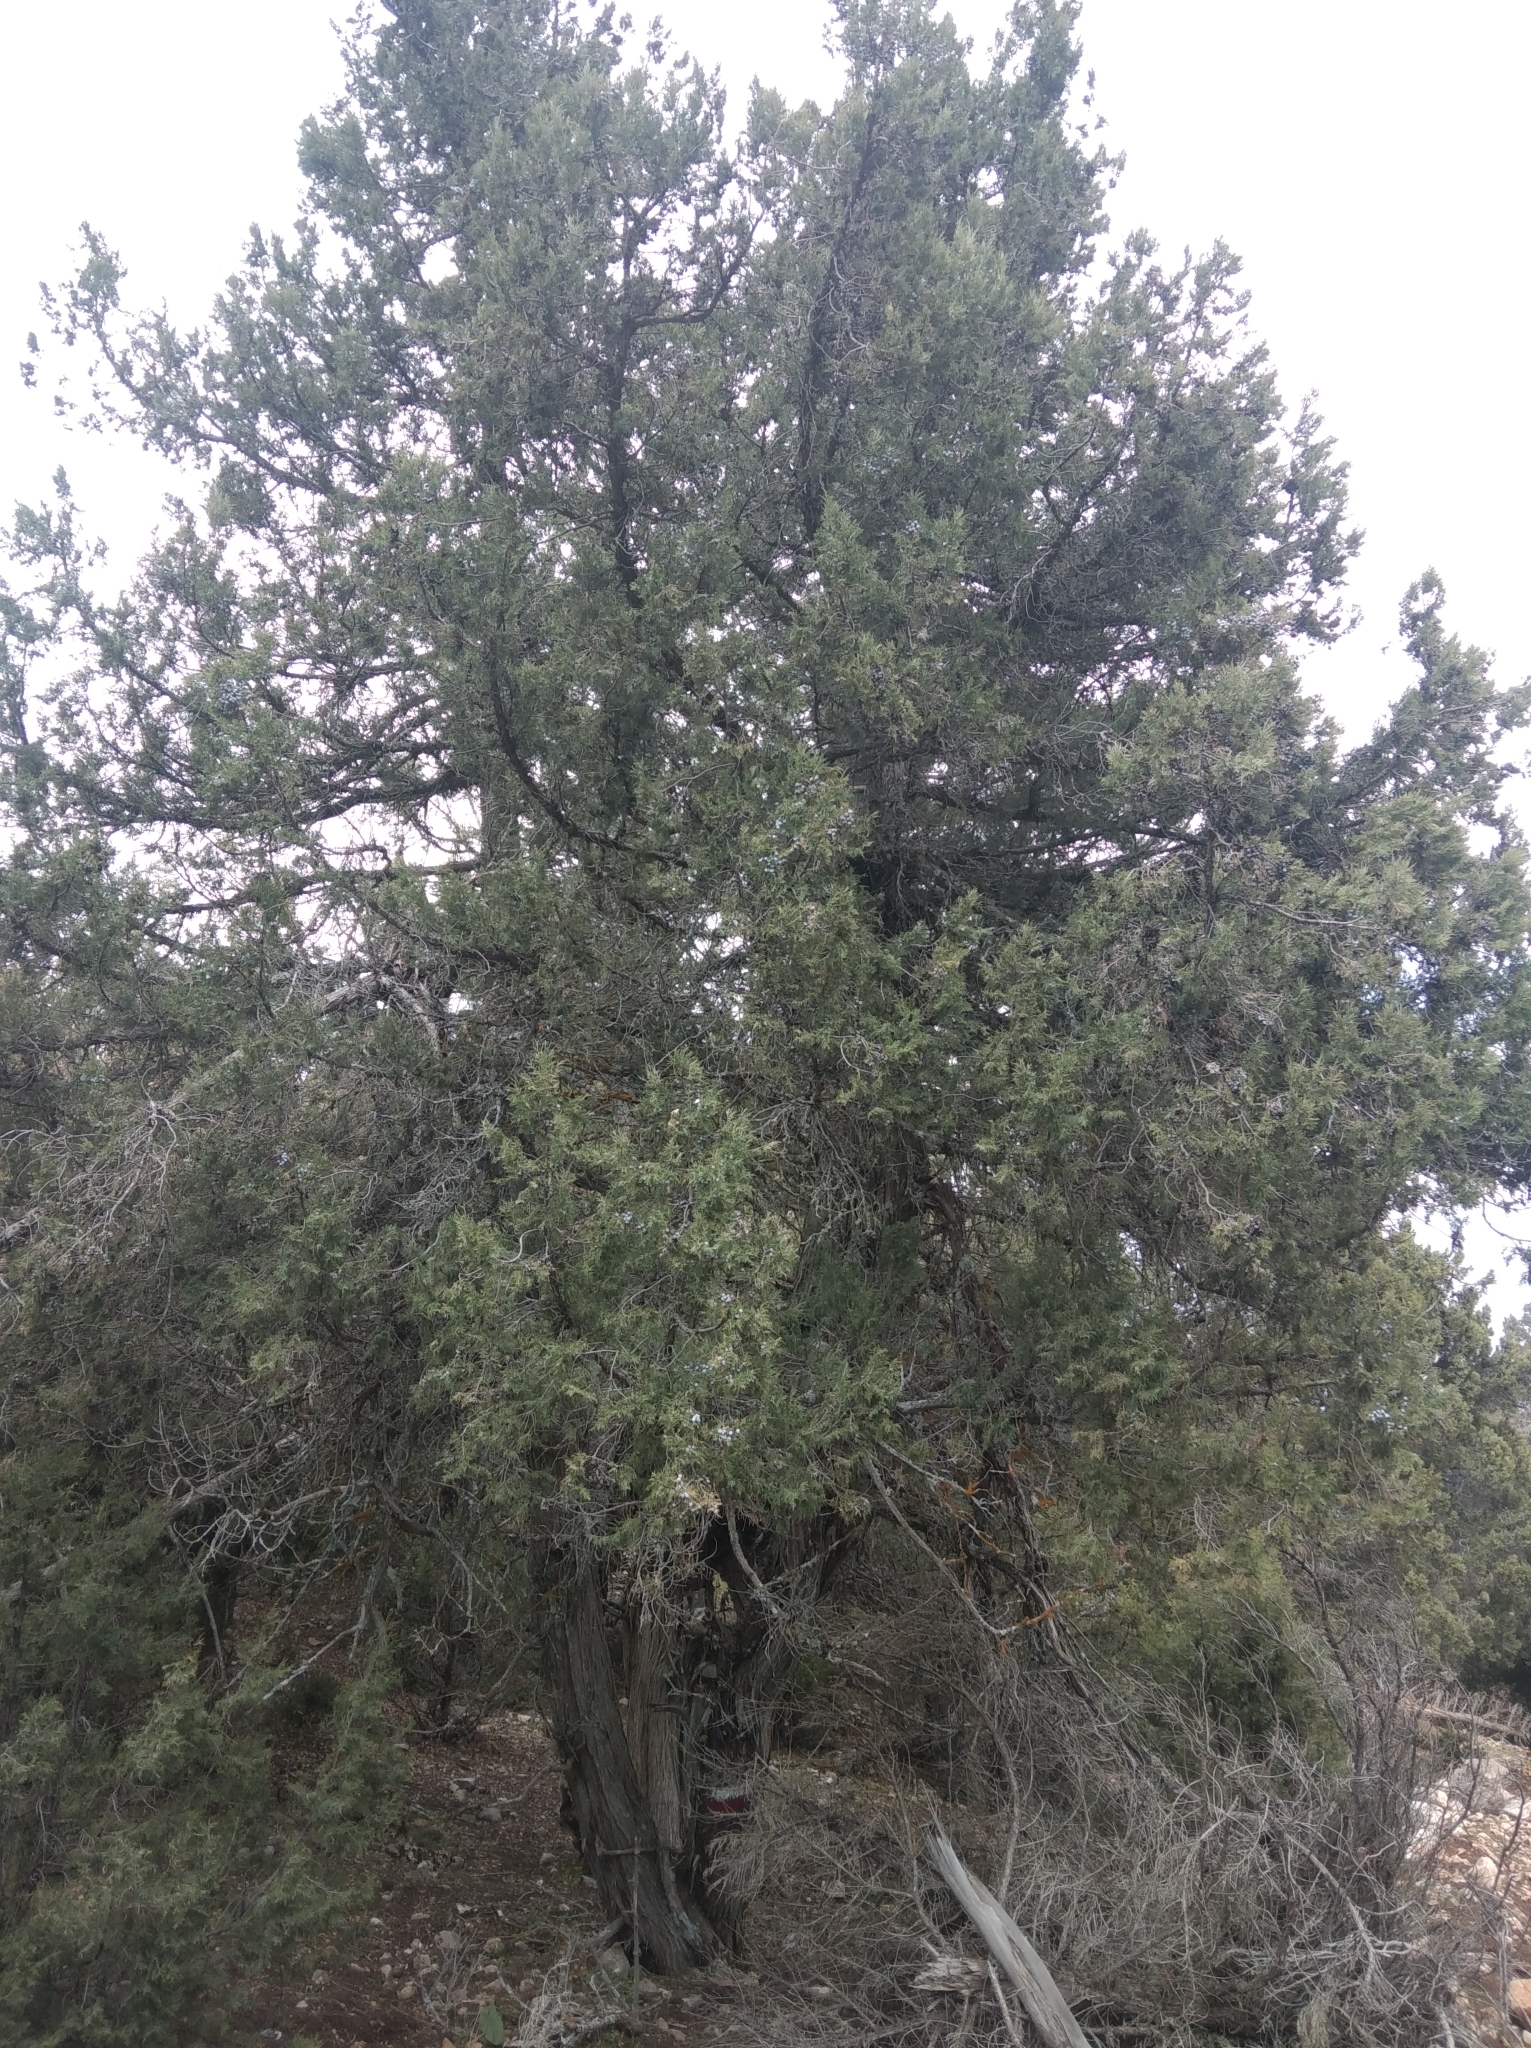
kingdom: Plantae
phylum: Tracheophyta
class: Pinopsida
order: Pinales
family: Cupressaceae
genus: Juniperus
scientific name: Juniperus excelsa
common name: Crimean juniper
